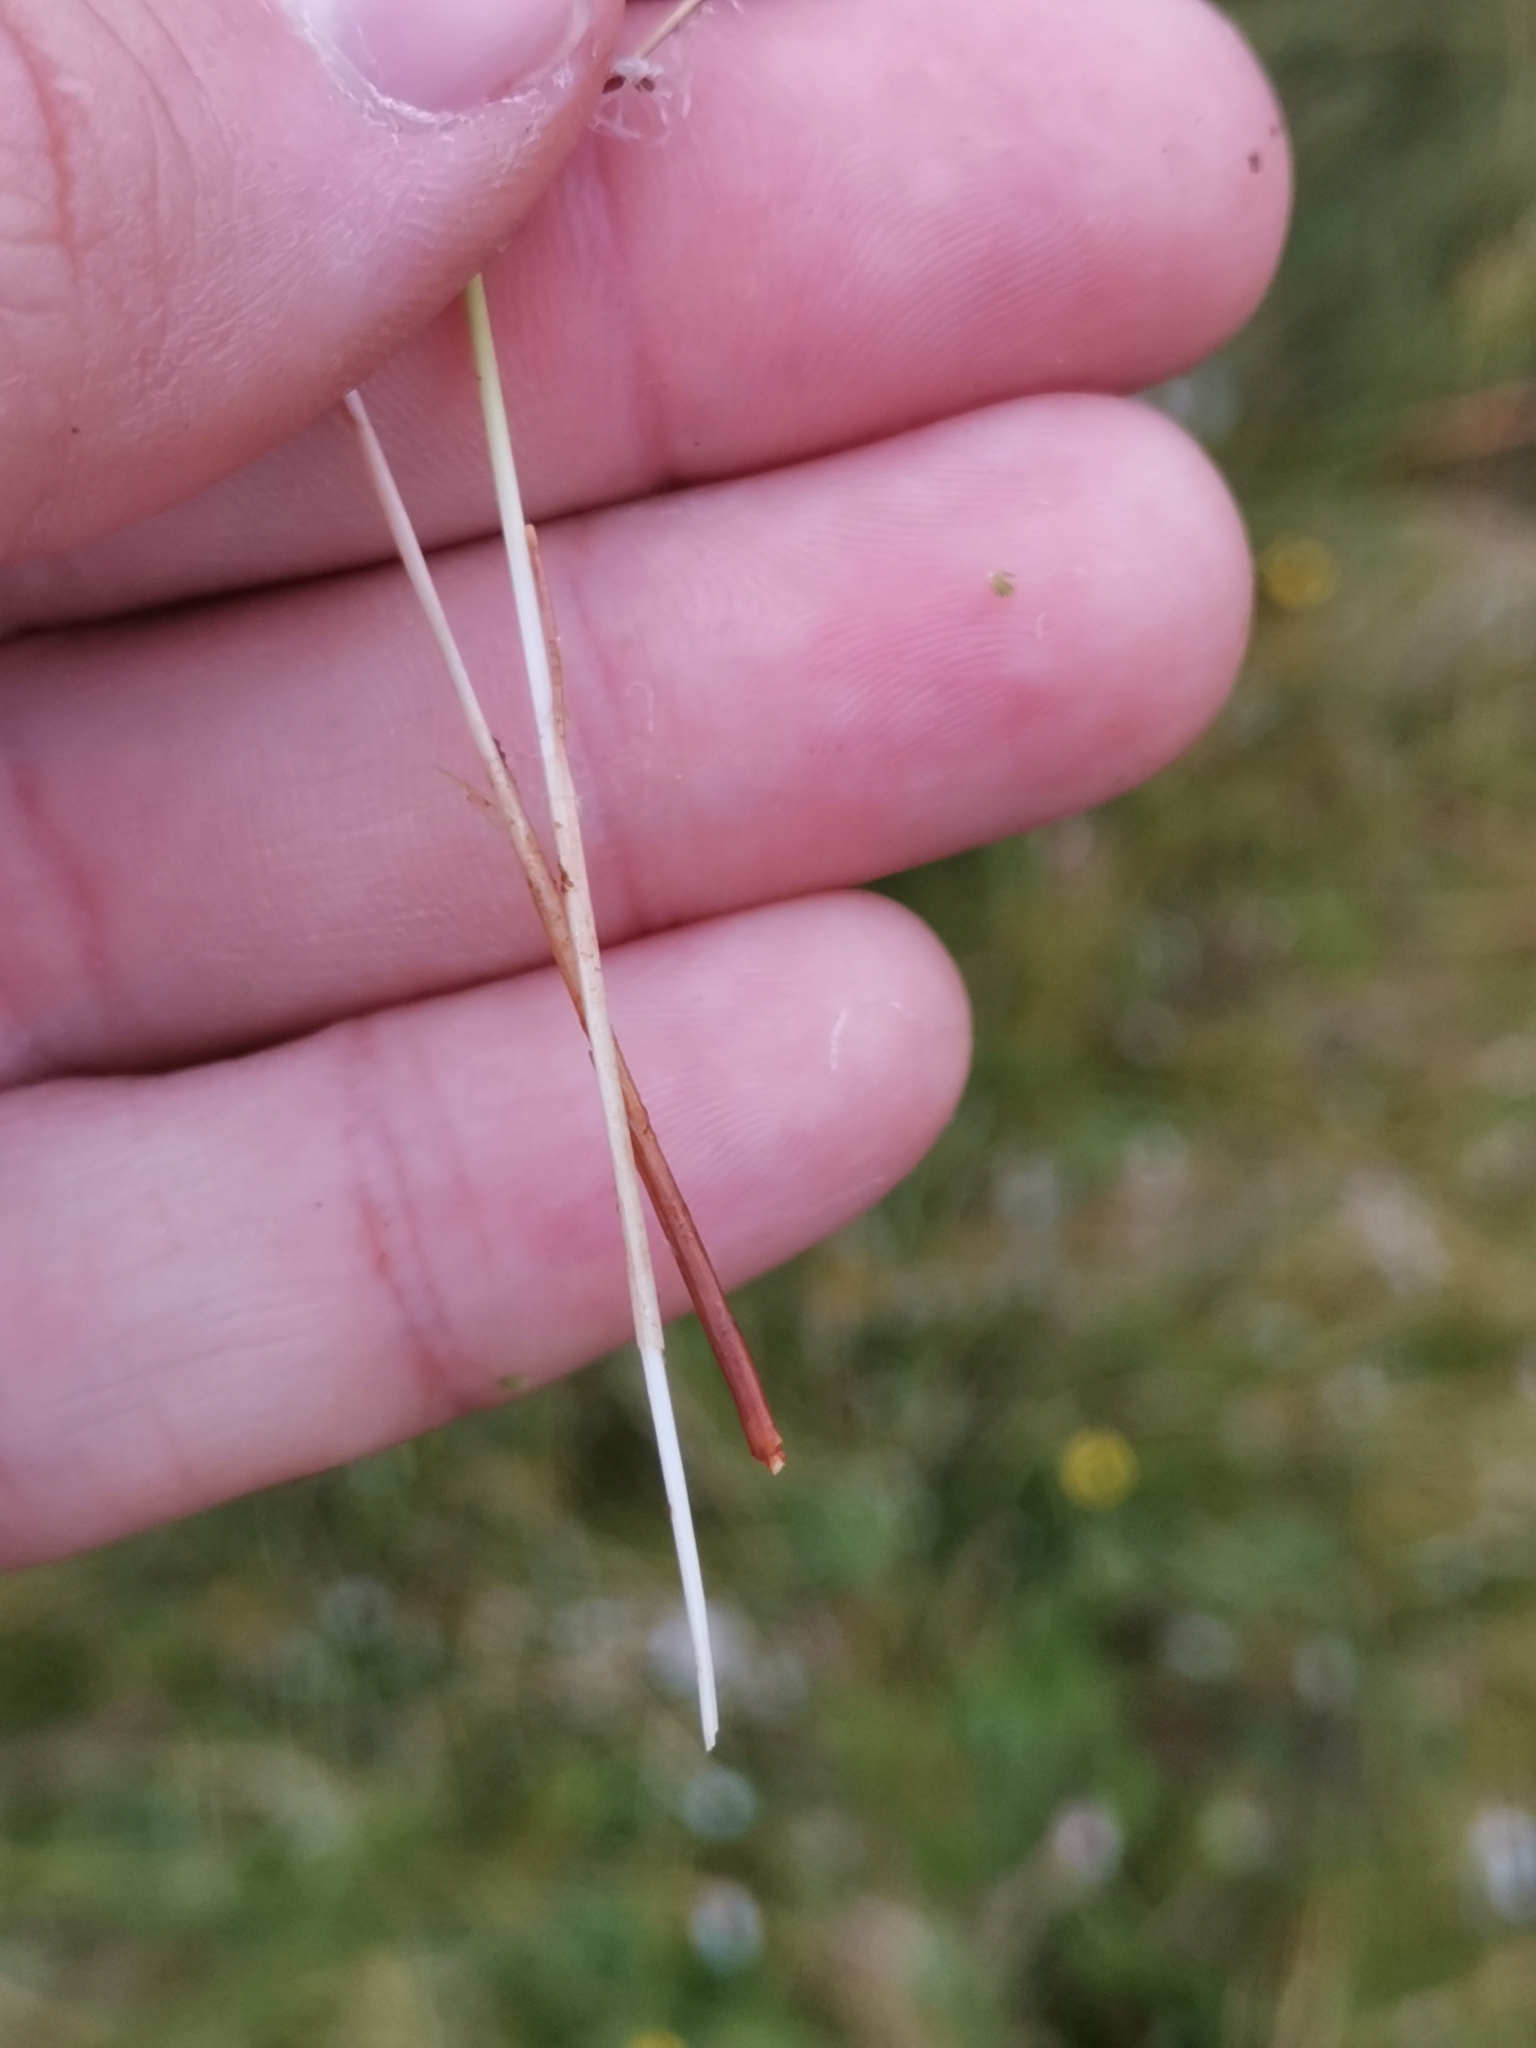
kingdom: Plantae
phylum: Tracheophyta
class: Liliopsida
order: Poales
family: Cyperaceae
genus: Trichophorum
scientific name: Trichophorum alpinum
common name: Alpine bulrush
